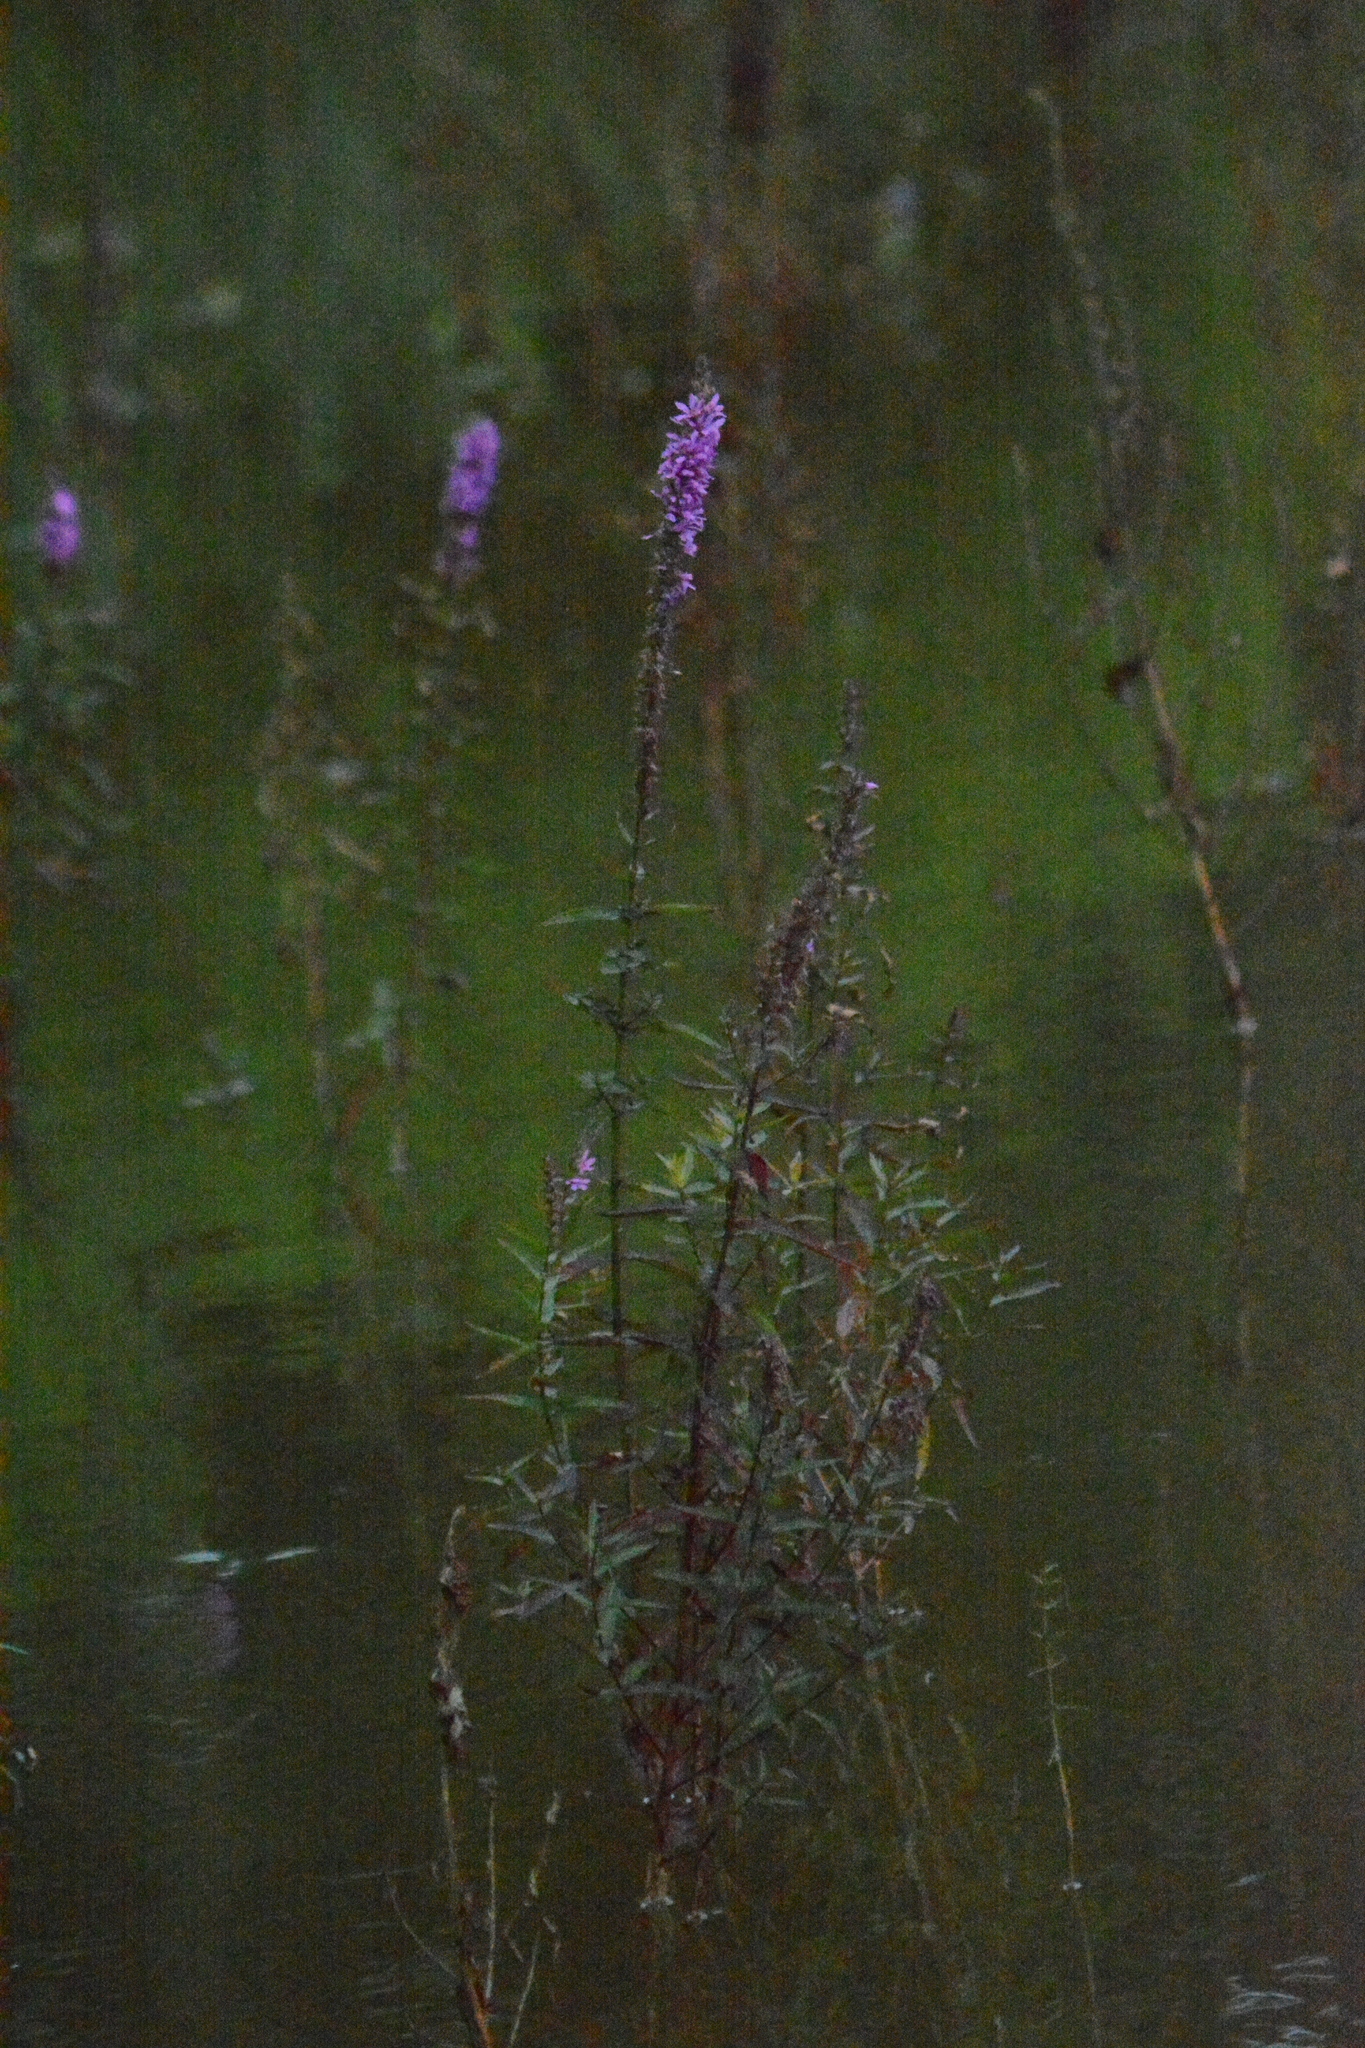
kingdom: Plantae
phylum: Tracheophyta
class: Magnoliopsida
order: Myrtales
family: Lythraceae
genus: Lythrum
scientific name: Lythrum salicaria
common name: Purple loosestrife
